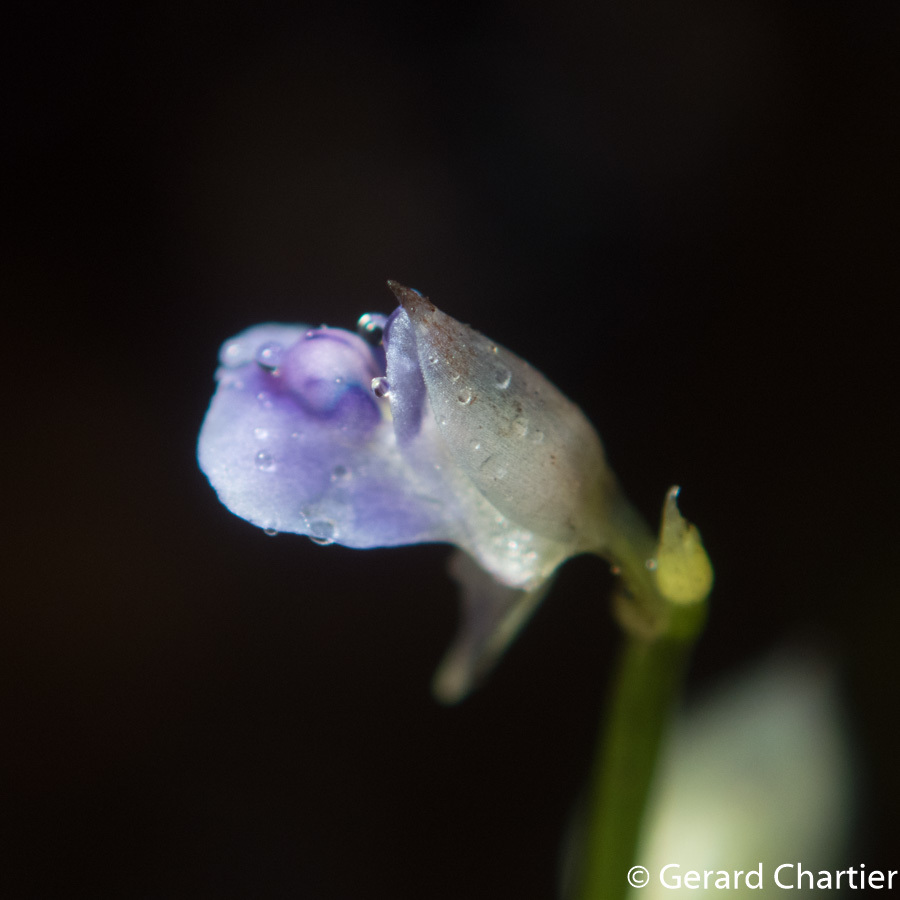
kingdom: Plantae
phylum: Tracheophyta
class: Magnoliopsida
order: Lamiales
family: Lentibulariaceae
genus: Utricularia
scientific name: Utricularia uliginosa
